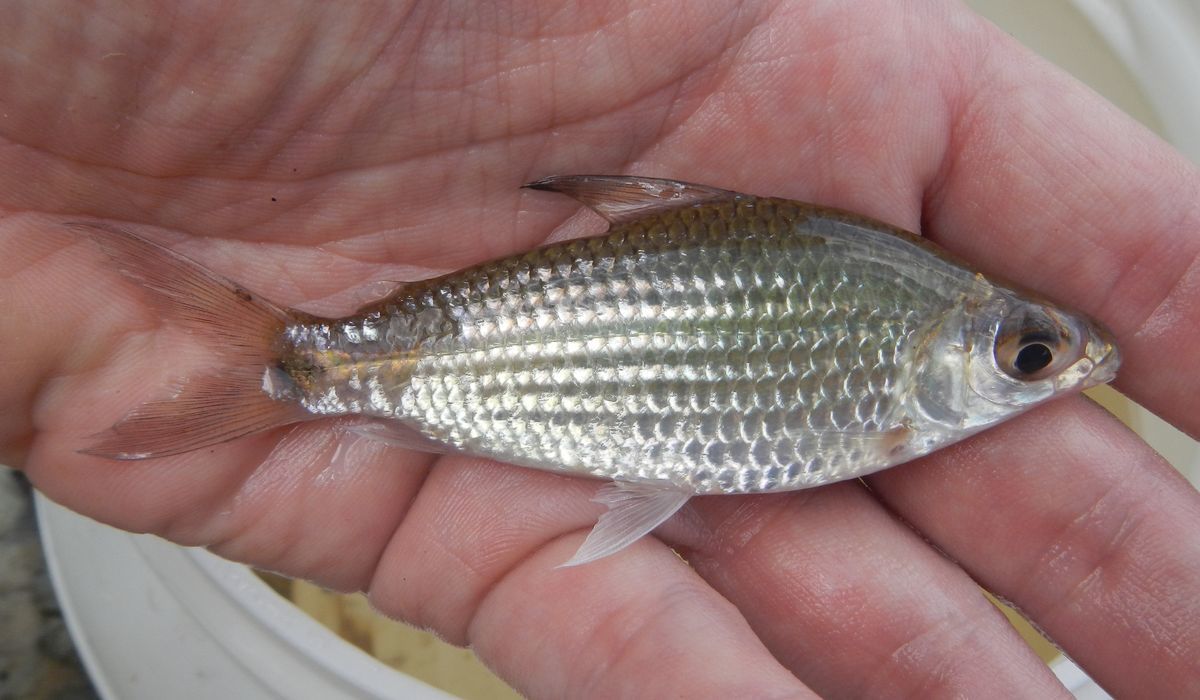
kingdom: Animalia
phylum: Chordata
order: Characiformes
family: Curimatidae
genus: Steindachnerina
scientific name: Steindachnerina varii
